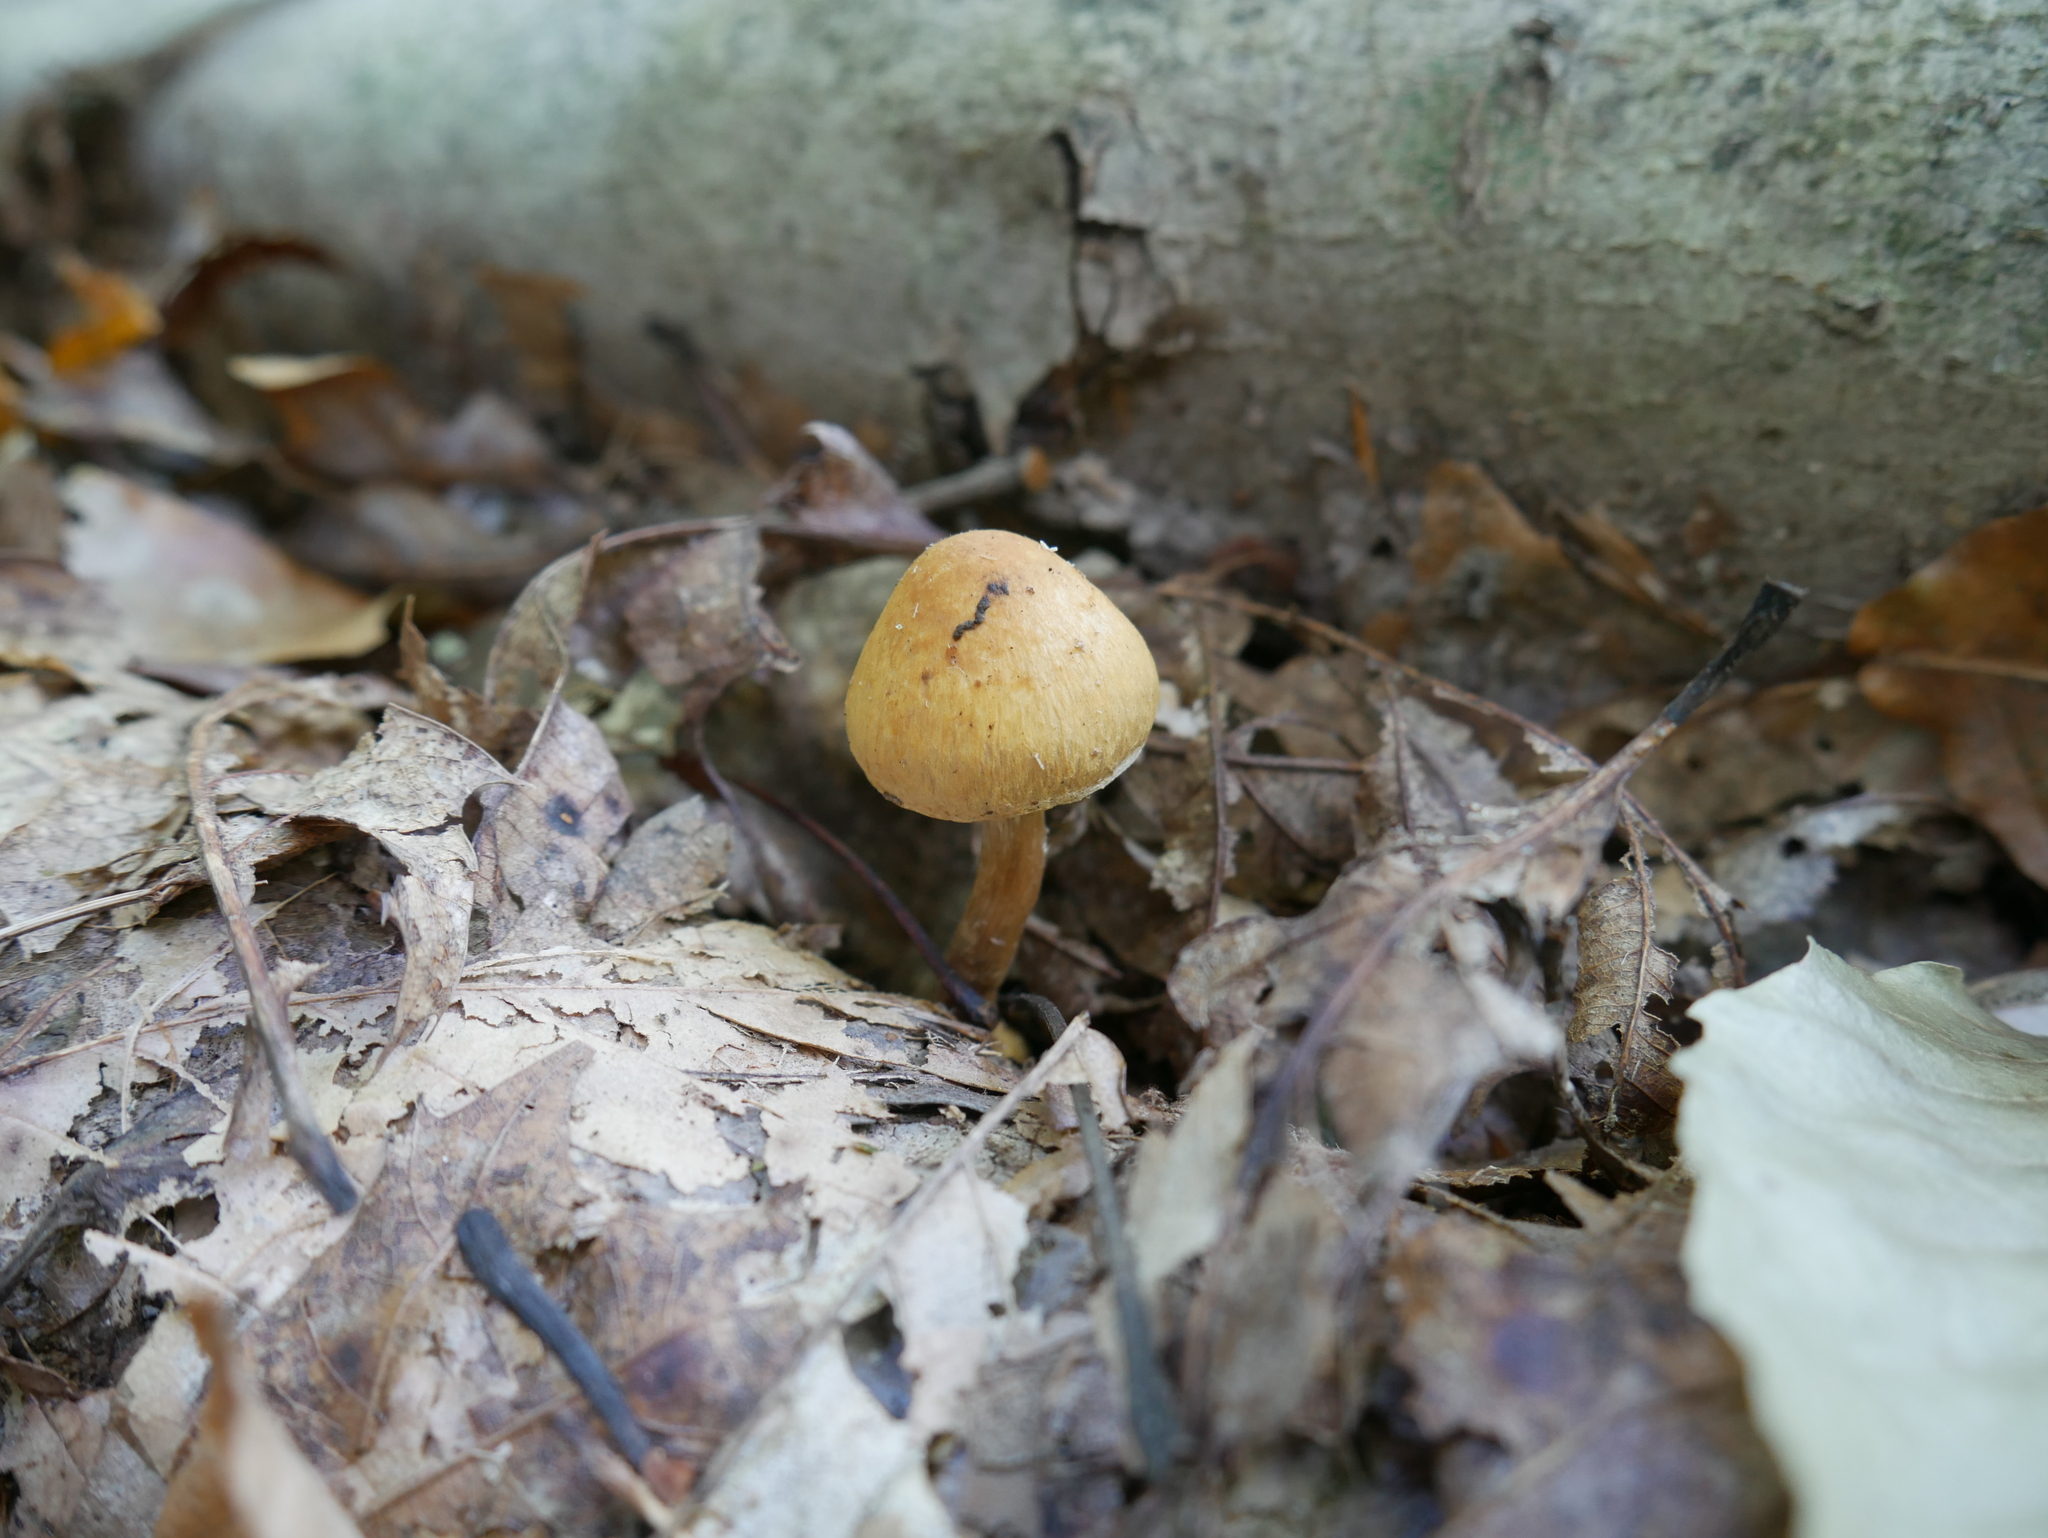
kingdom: Fungi
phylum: Basidiomycota
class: Agaricomycetes
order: Agaricales
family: Inocybaceae
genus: Inocybe
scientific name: Inocybe subochracea
